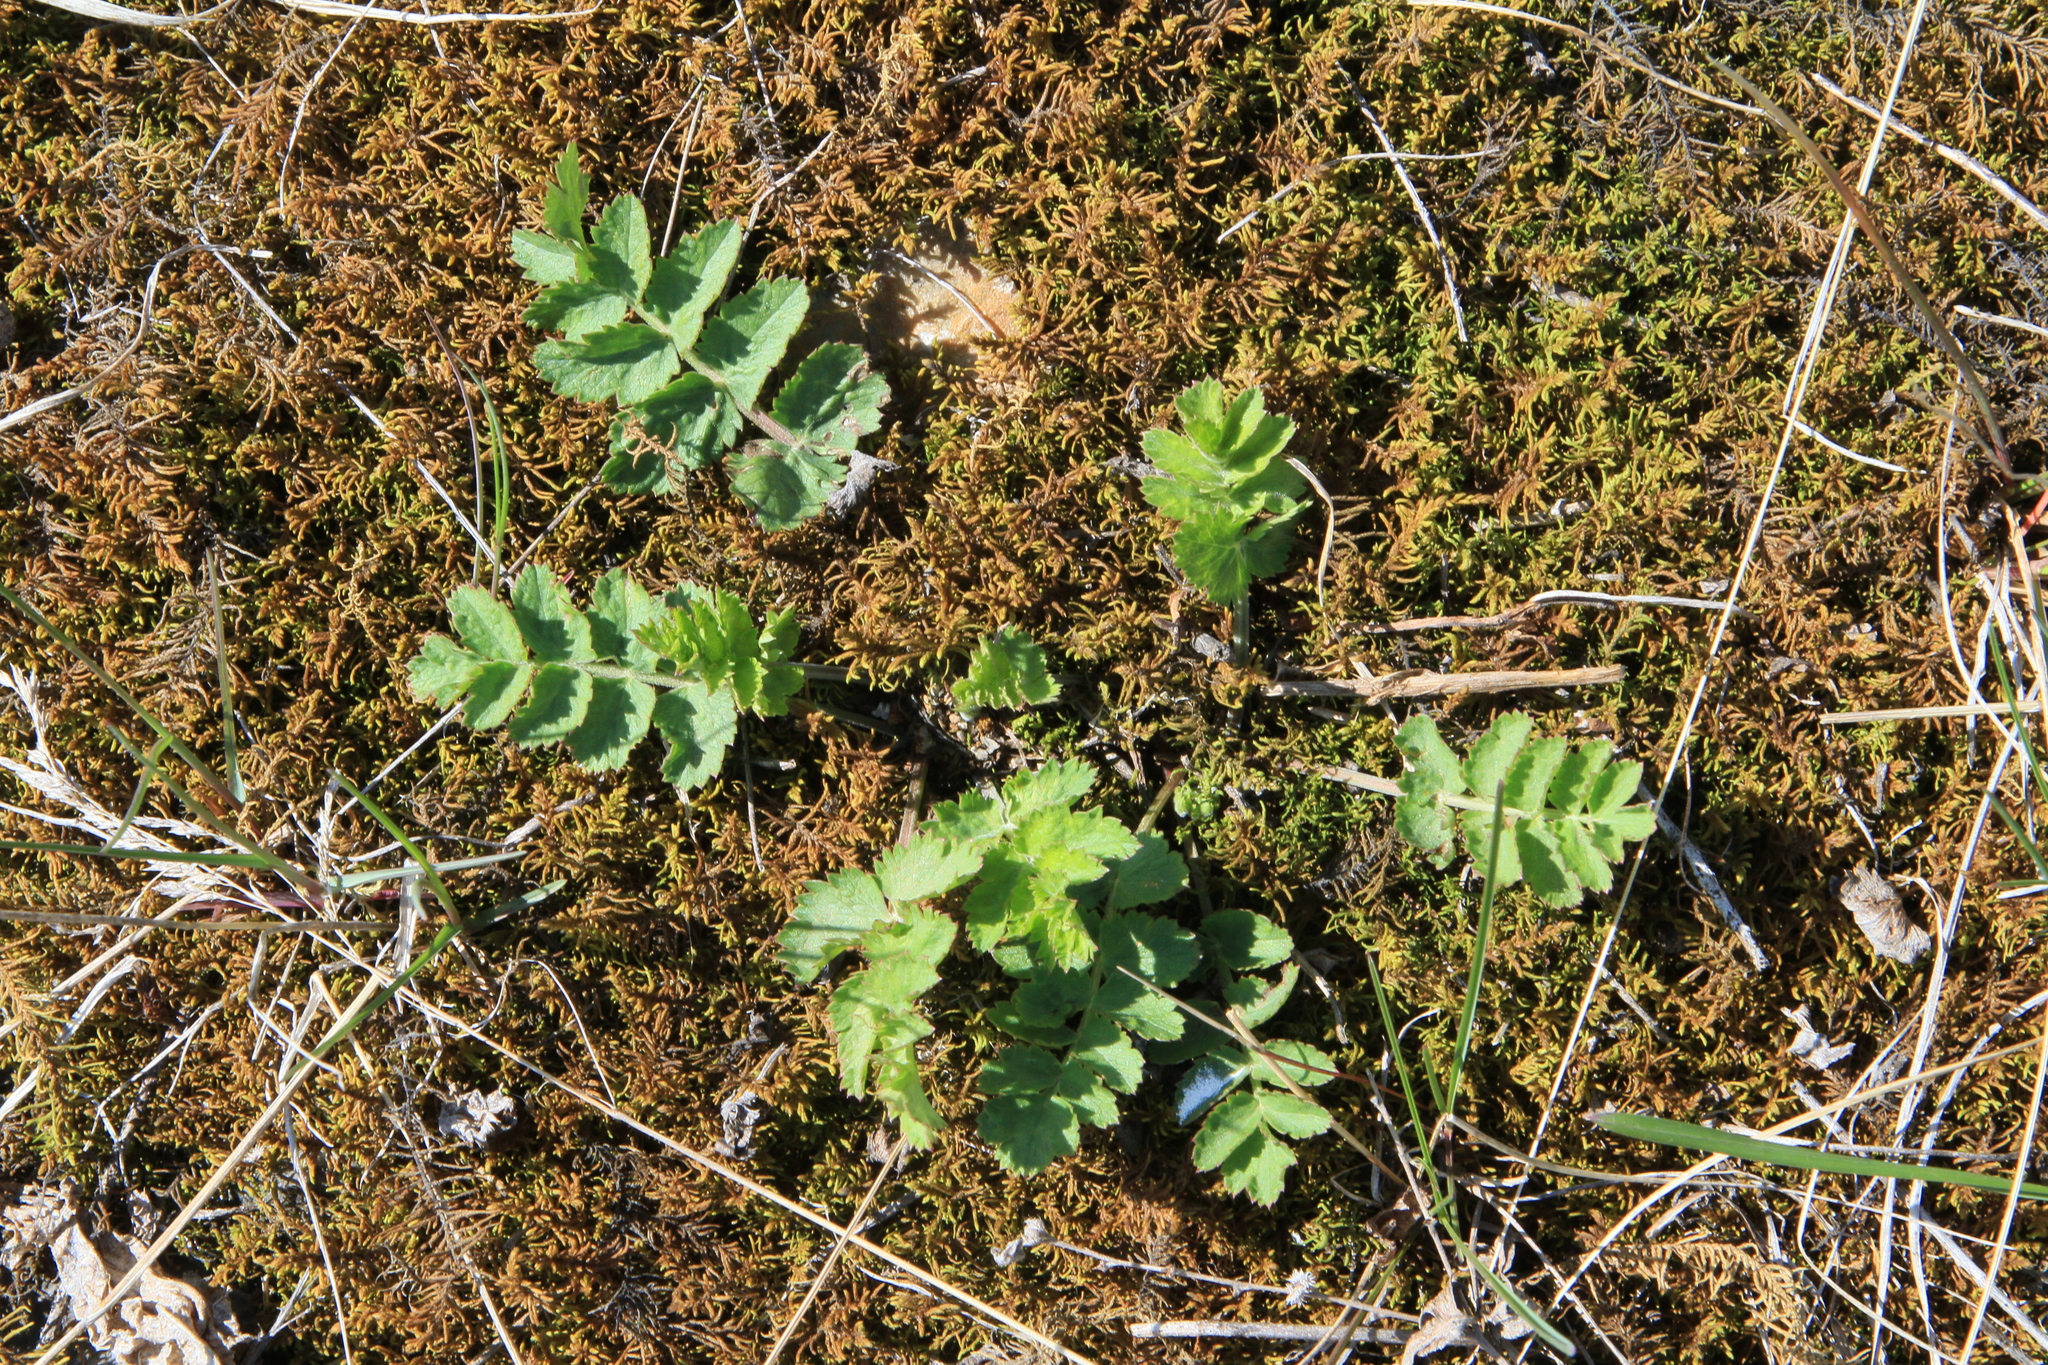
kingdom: Plantae
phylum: Tracheophyta
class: Magnoliopsida
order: Apiales
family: Apiaceae
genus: Pimpinella
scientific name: Pimpinella saxifraga
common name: Burnet-saxifrage
